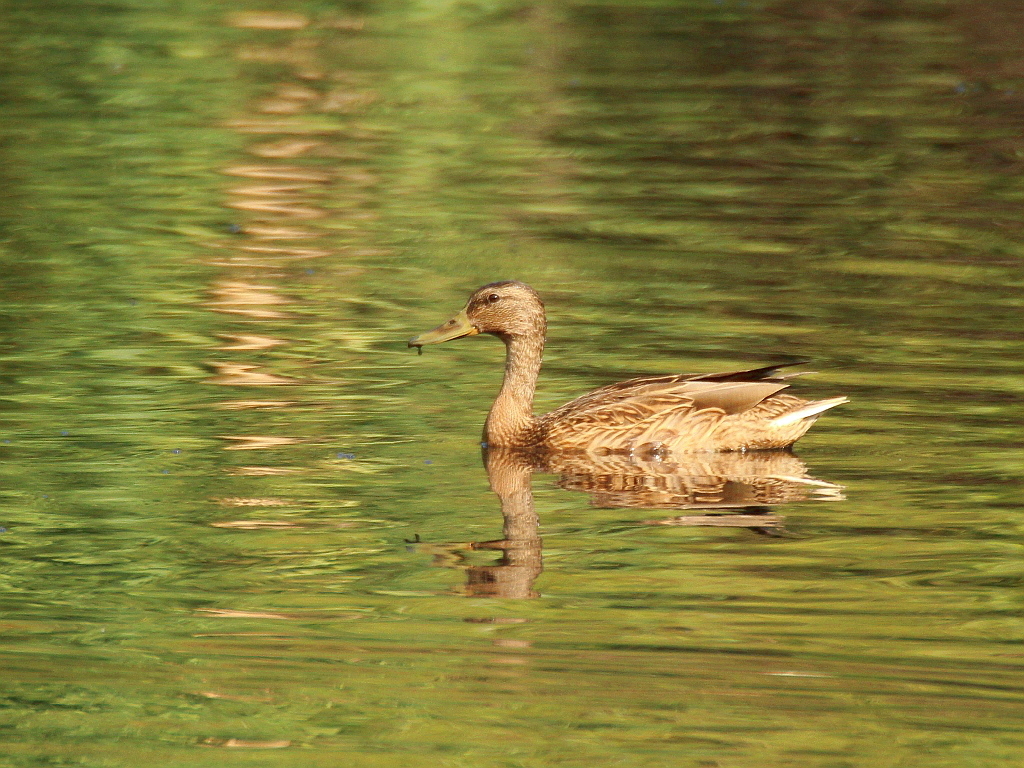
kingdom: Animalia
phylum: Chordata
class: Aves
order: Anseriformes
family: Anatidae
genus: Anas
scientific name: Anas platyrhynchos
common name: Mallard
